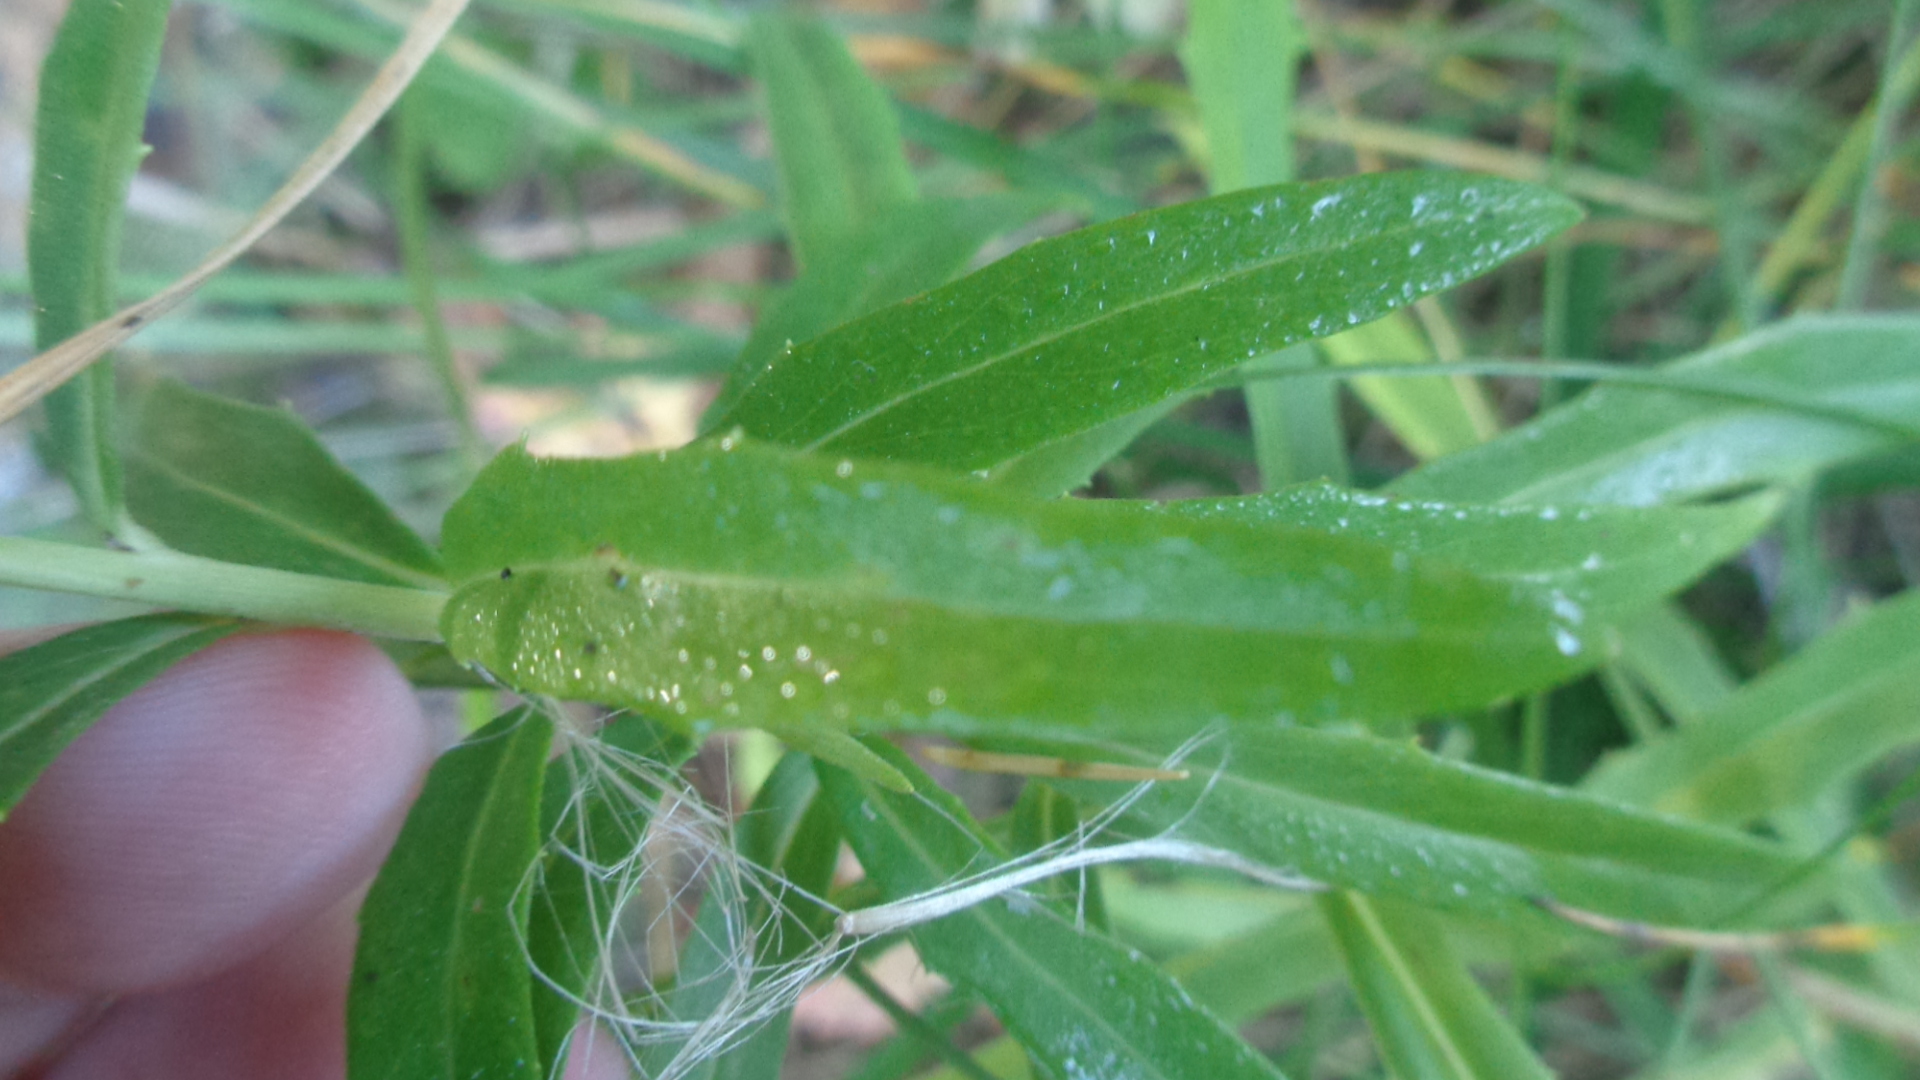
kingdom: Plantae
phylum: Tracheophyta
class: Magnoliopsida
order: Asterales
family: Asteraceae
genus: Hieracium
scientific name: Hieracium umbellatum
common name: Northern hawkweed
